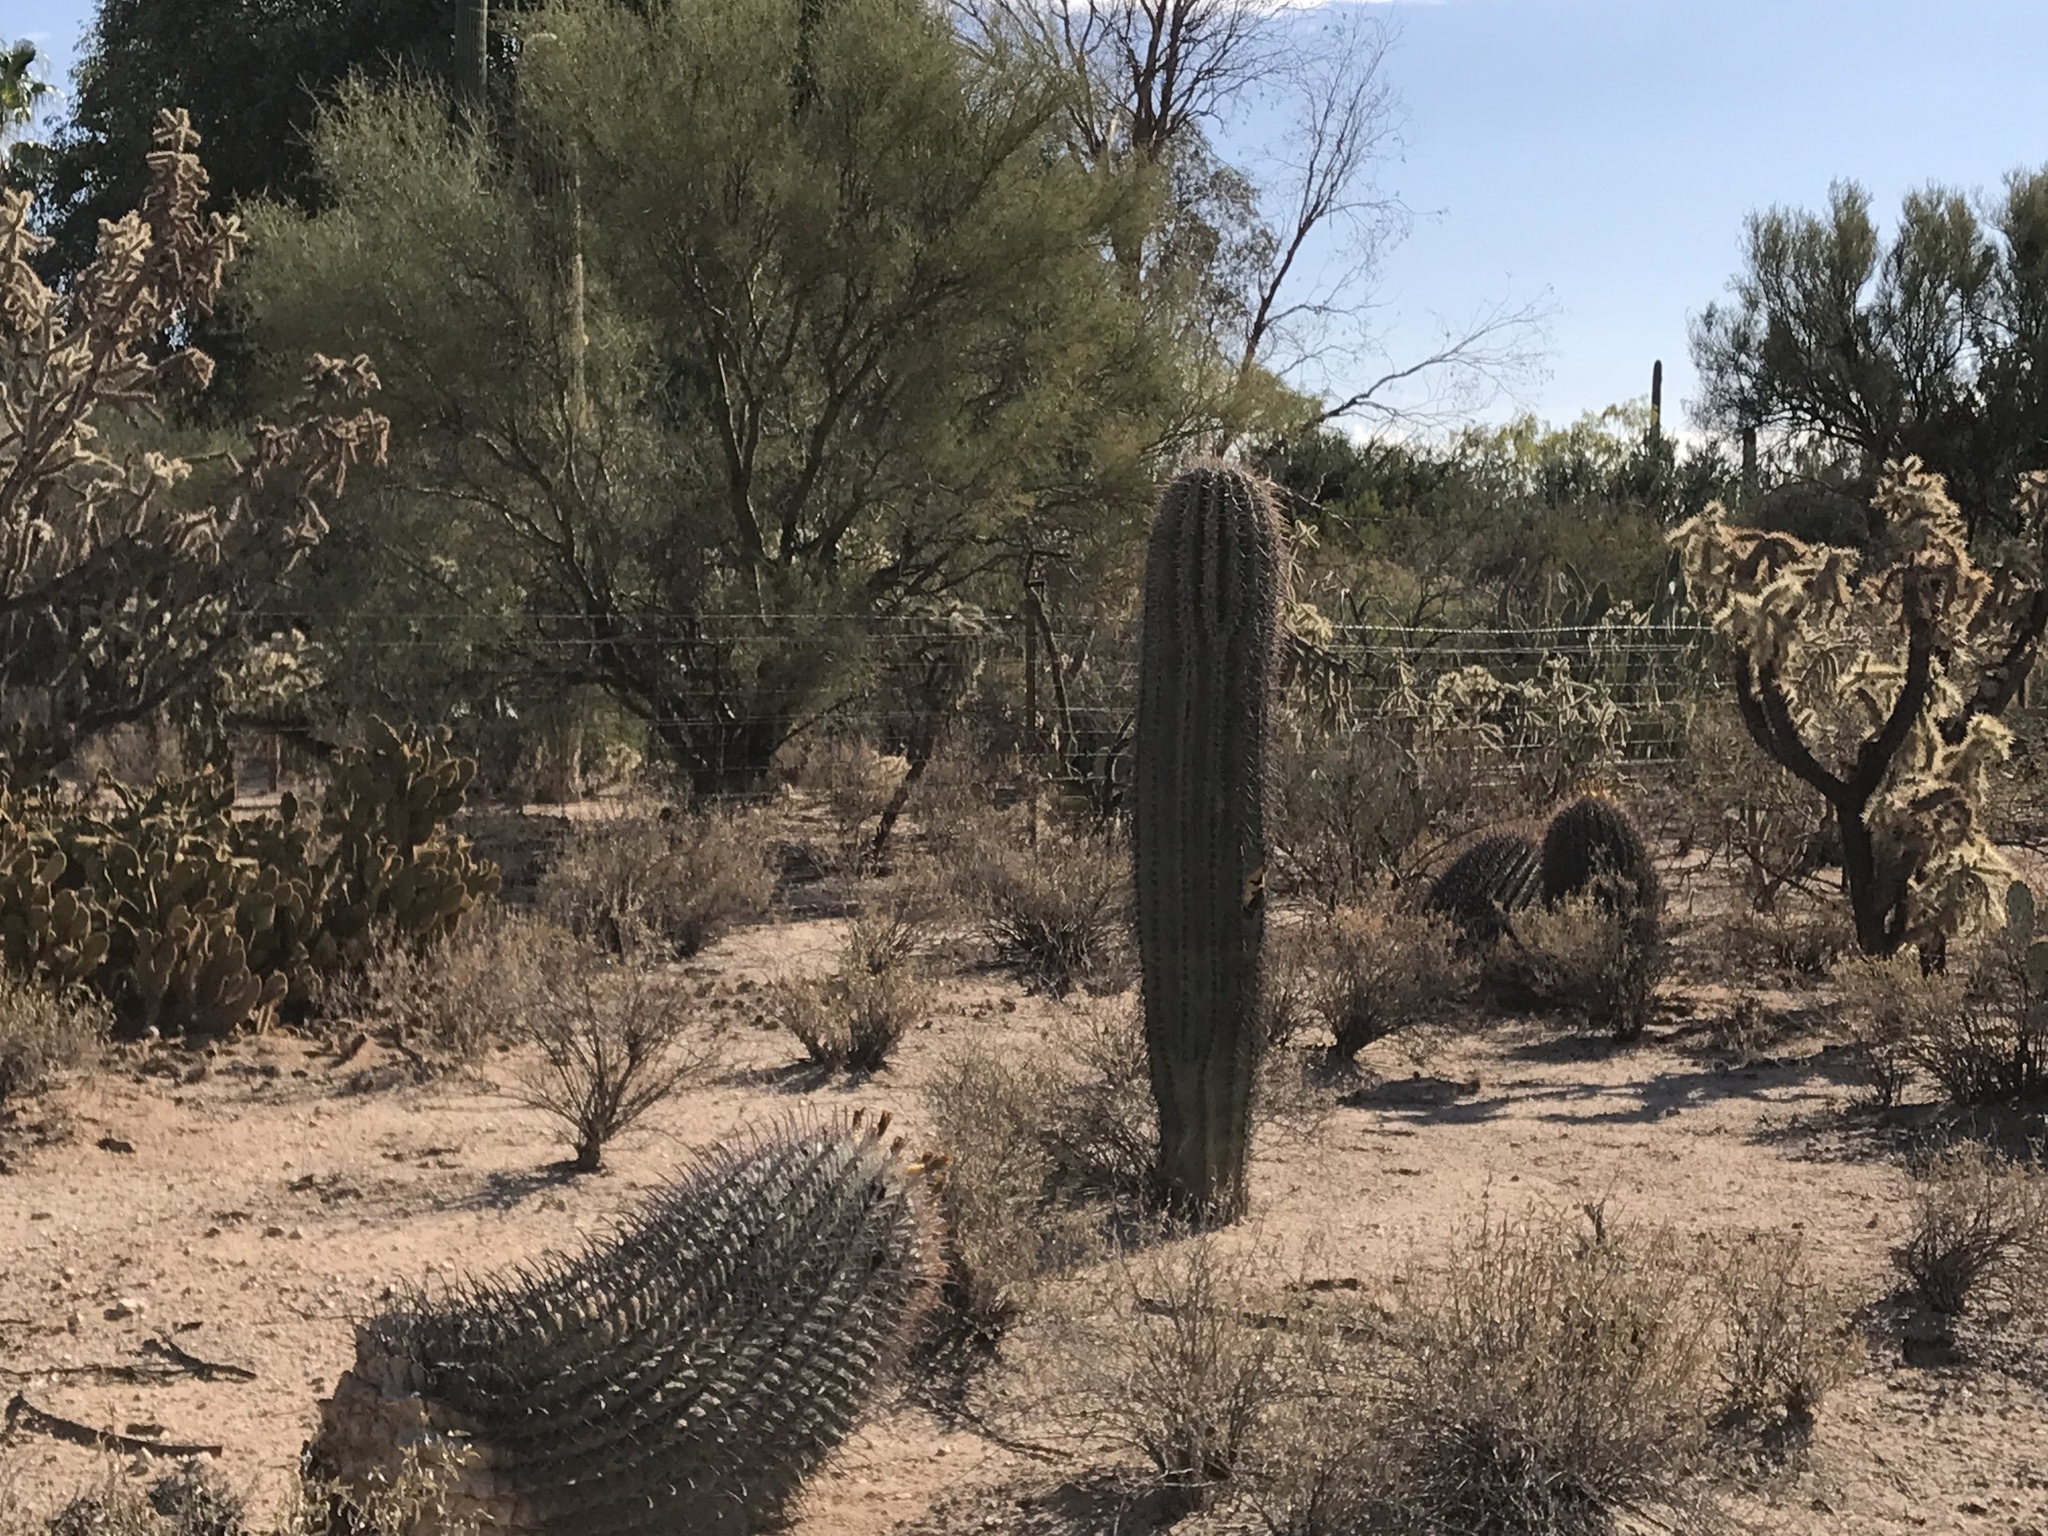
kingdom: Plantae
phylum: Tracheophyta
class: Magnoliopsida
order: Caryophyllales
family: Cactaceae
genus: Carnegiea
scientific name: Carnegiea gigantea
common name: Saguaro
